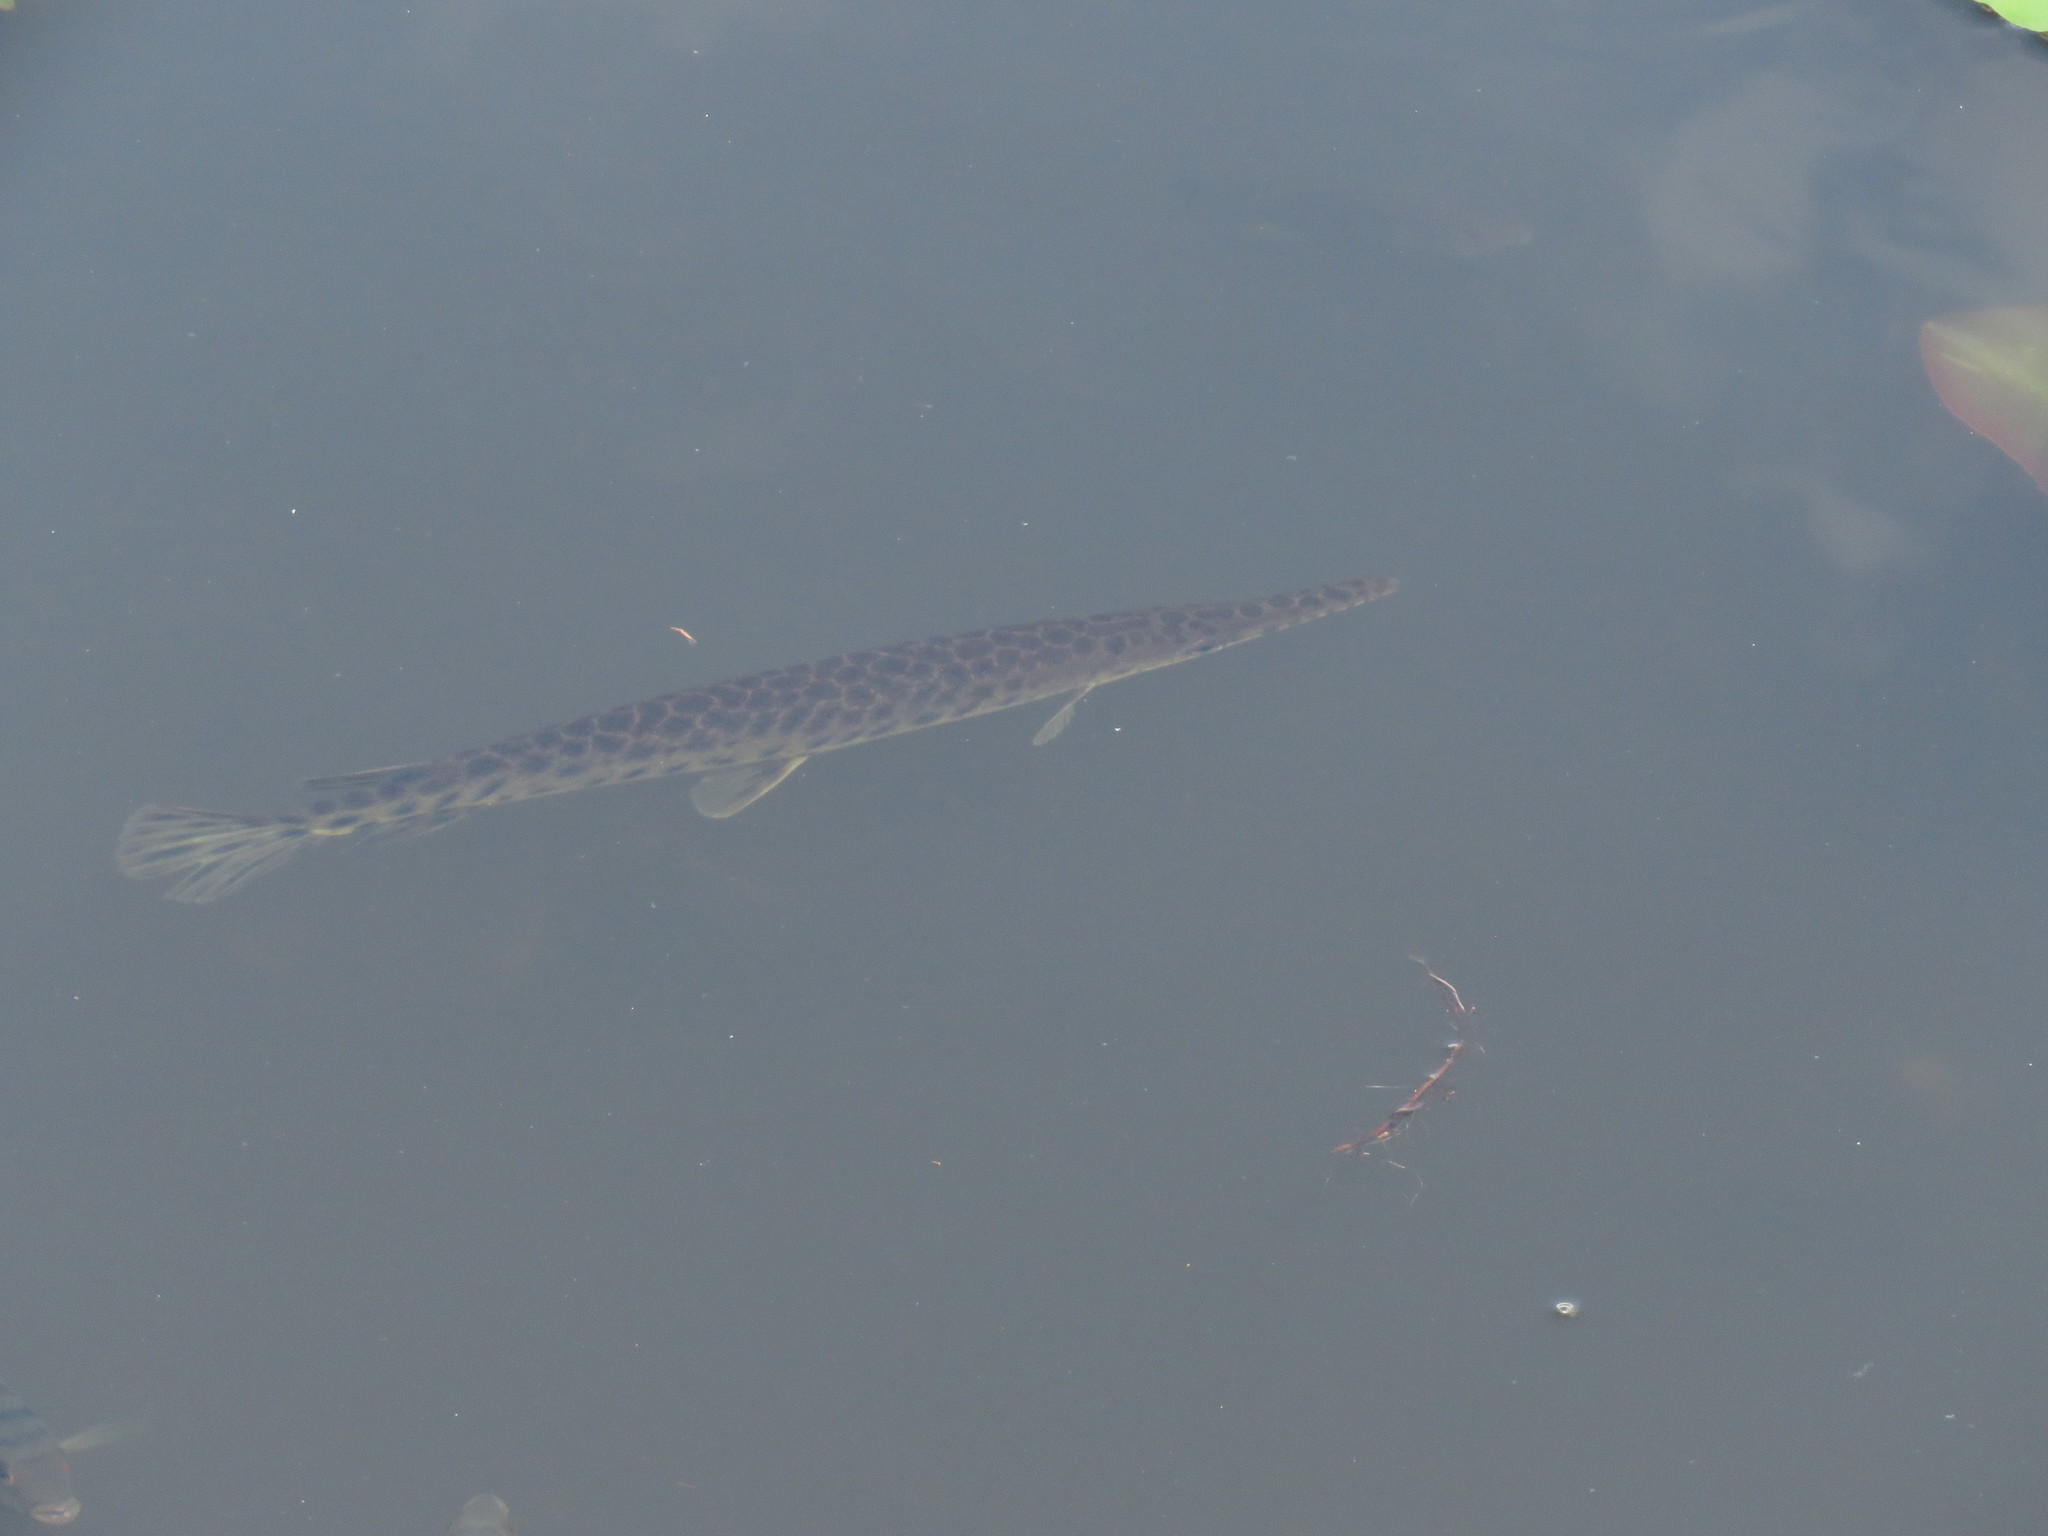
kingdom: Animalia
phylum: Chordata
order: Lepisosteiformes
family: Lepisosteidae
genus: Lepisosteus
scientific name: Lepisosteus platyrhincus
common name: Florida gar
